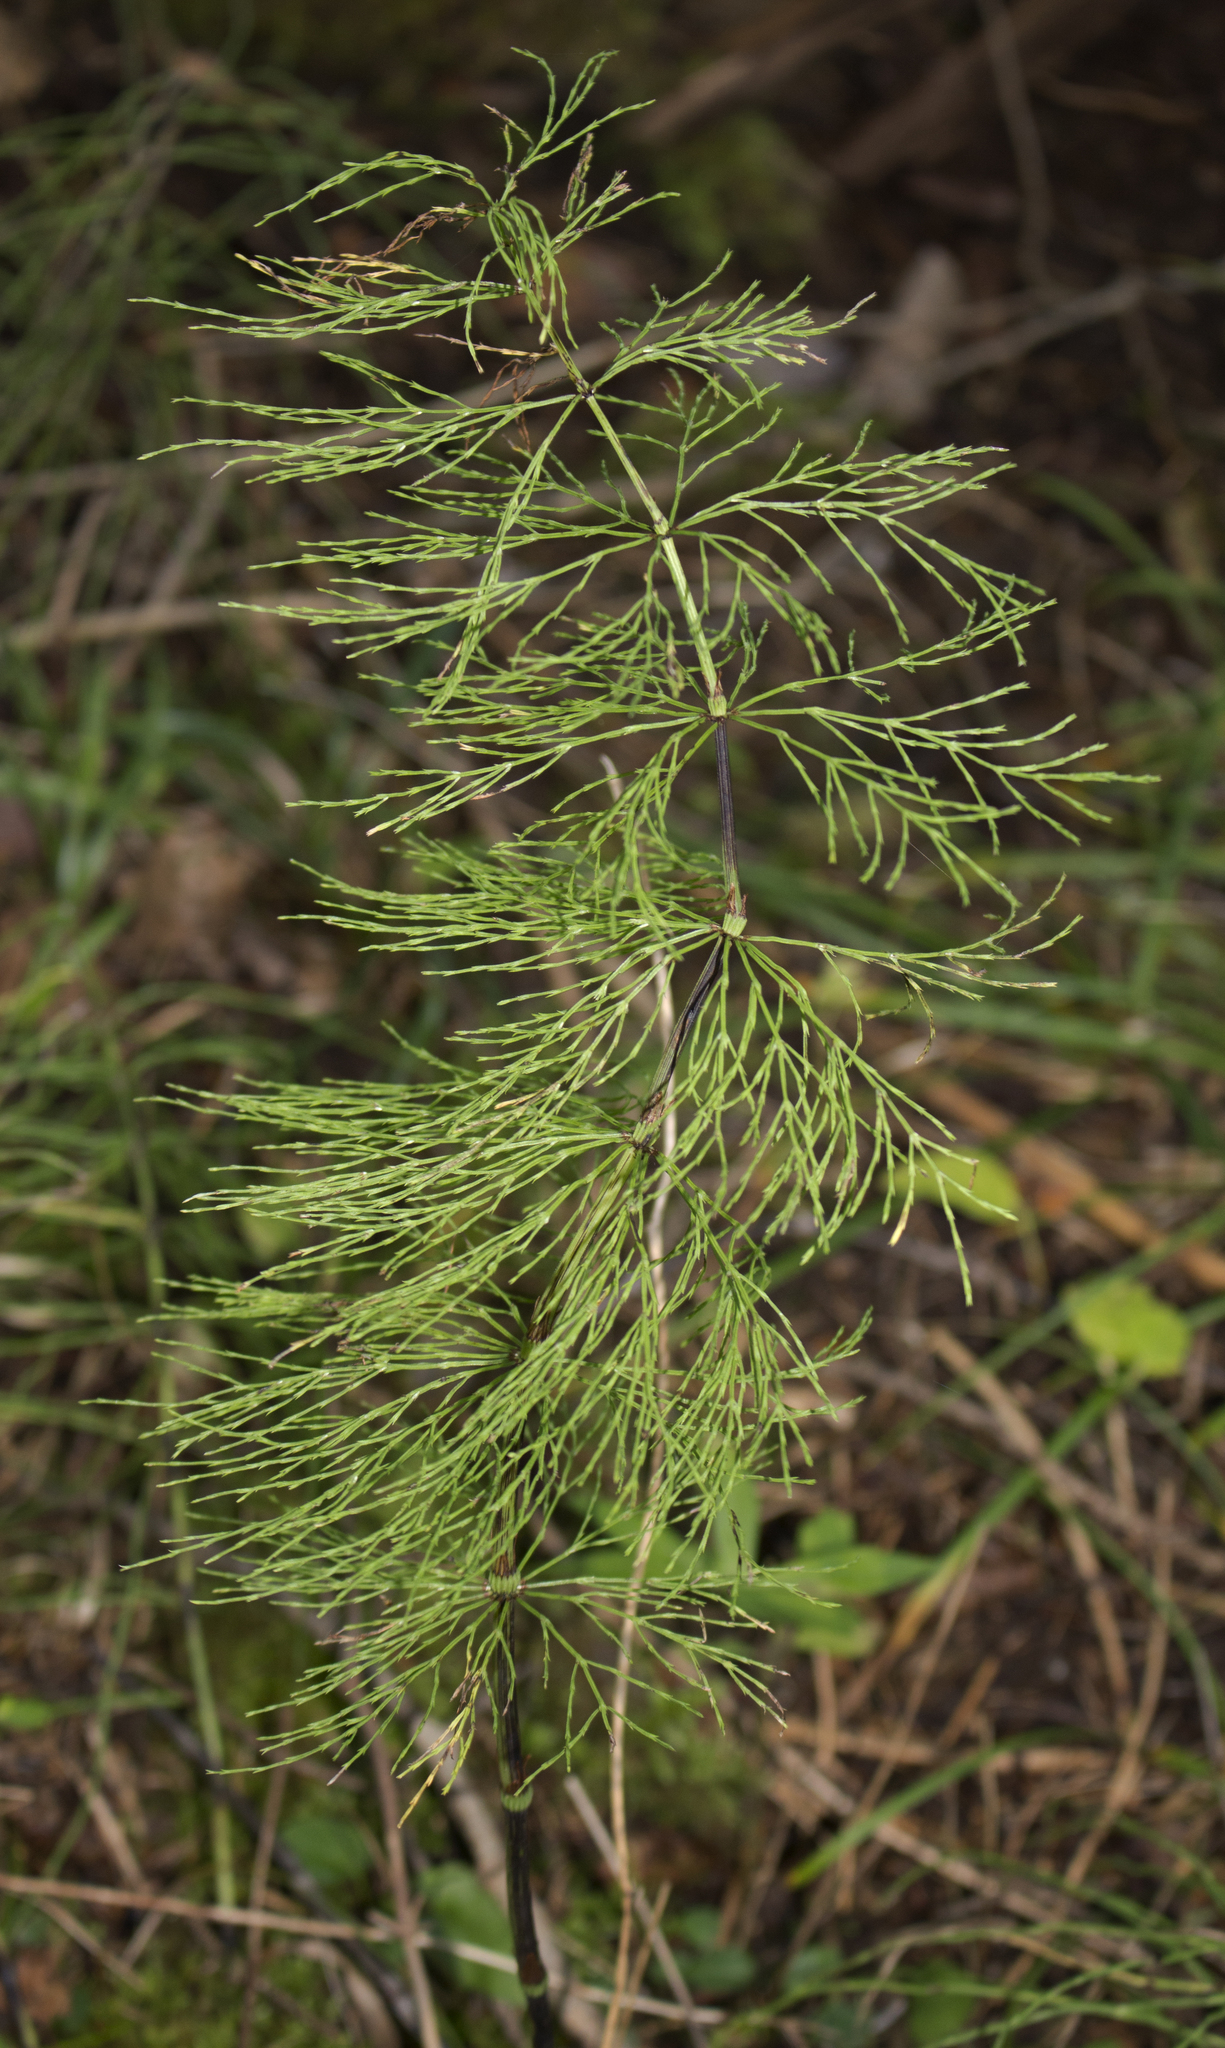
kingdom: Plantae
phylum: Tracheophyta
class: Polypodiopsida
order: Equisetales
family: Equisetaceae
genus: Equisetum
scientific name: Equisetum sylvaticum
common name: Wood horsetail
